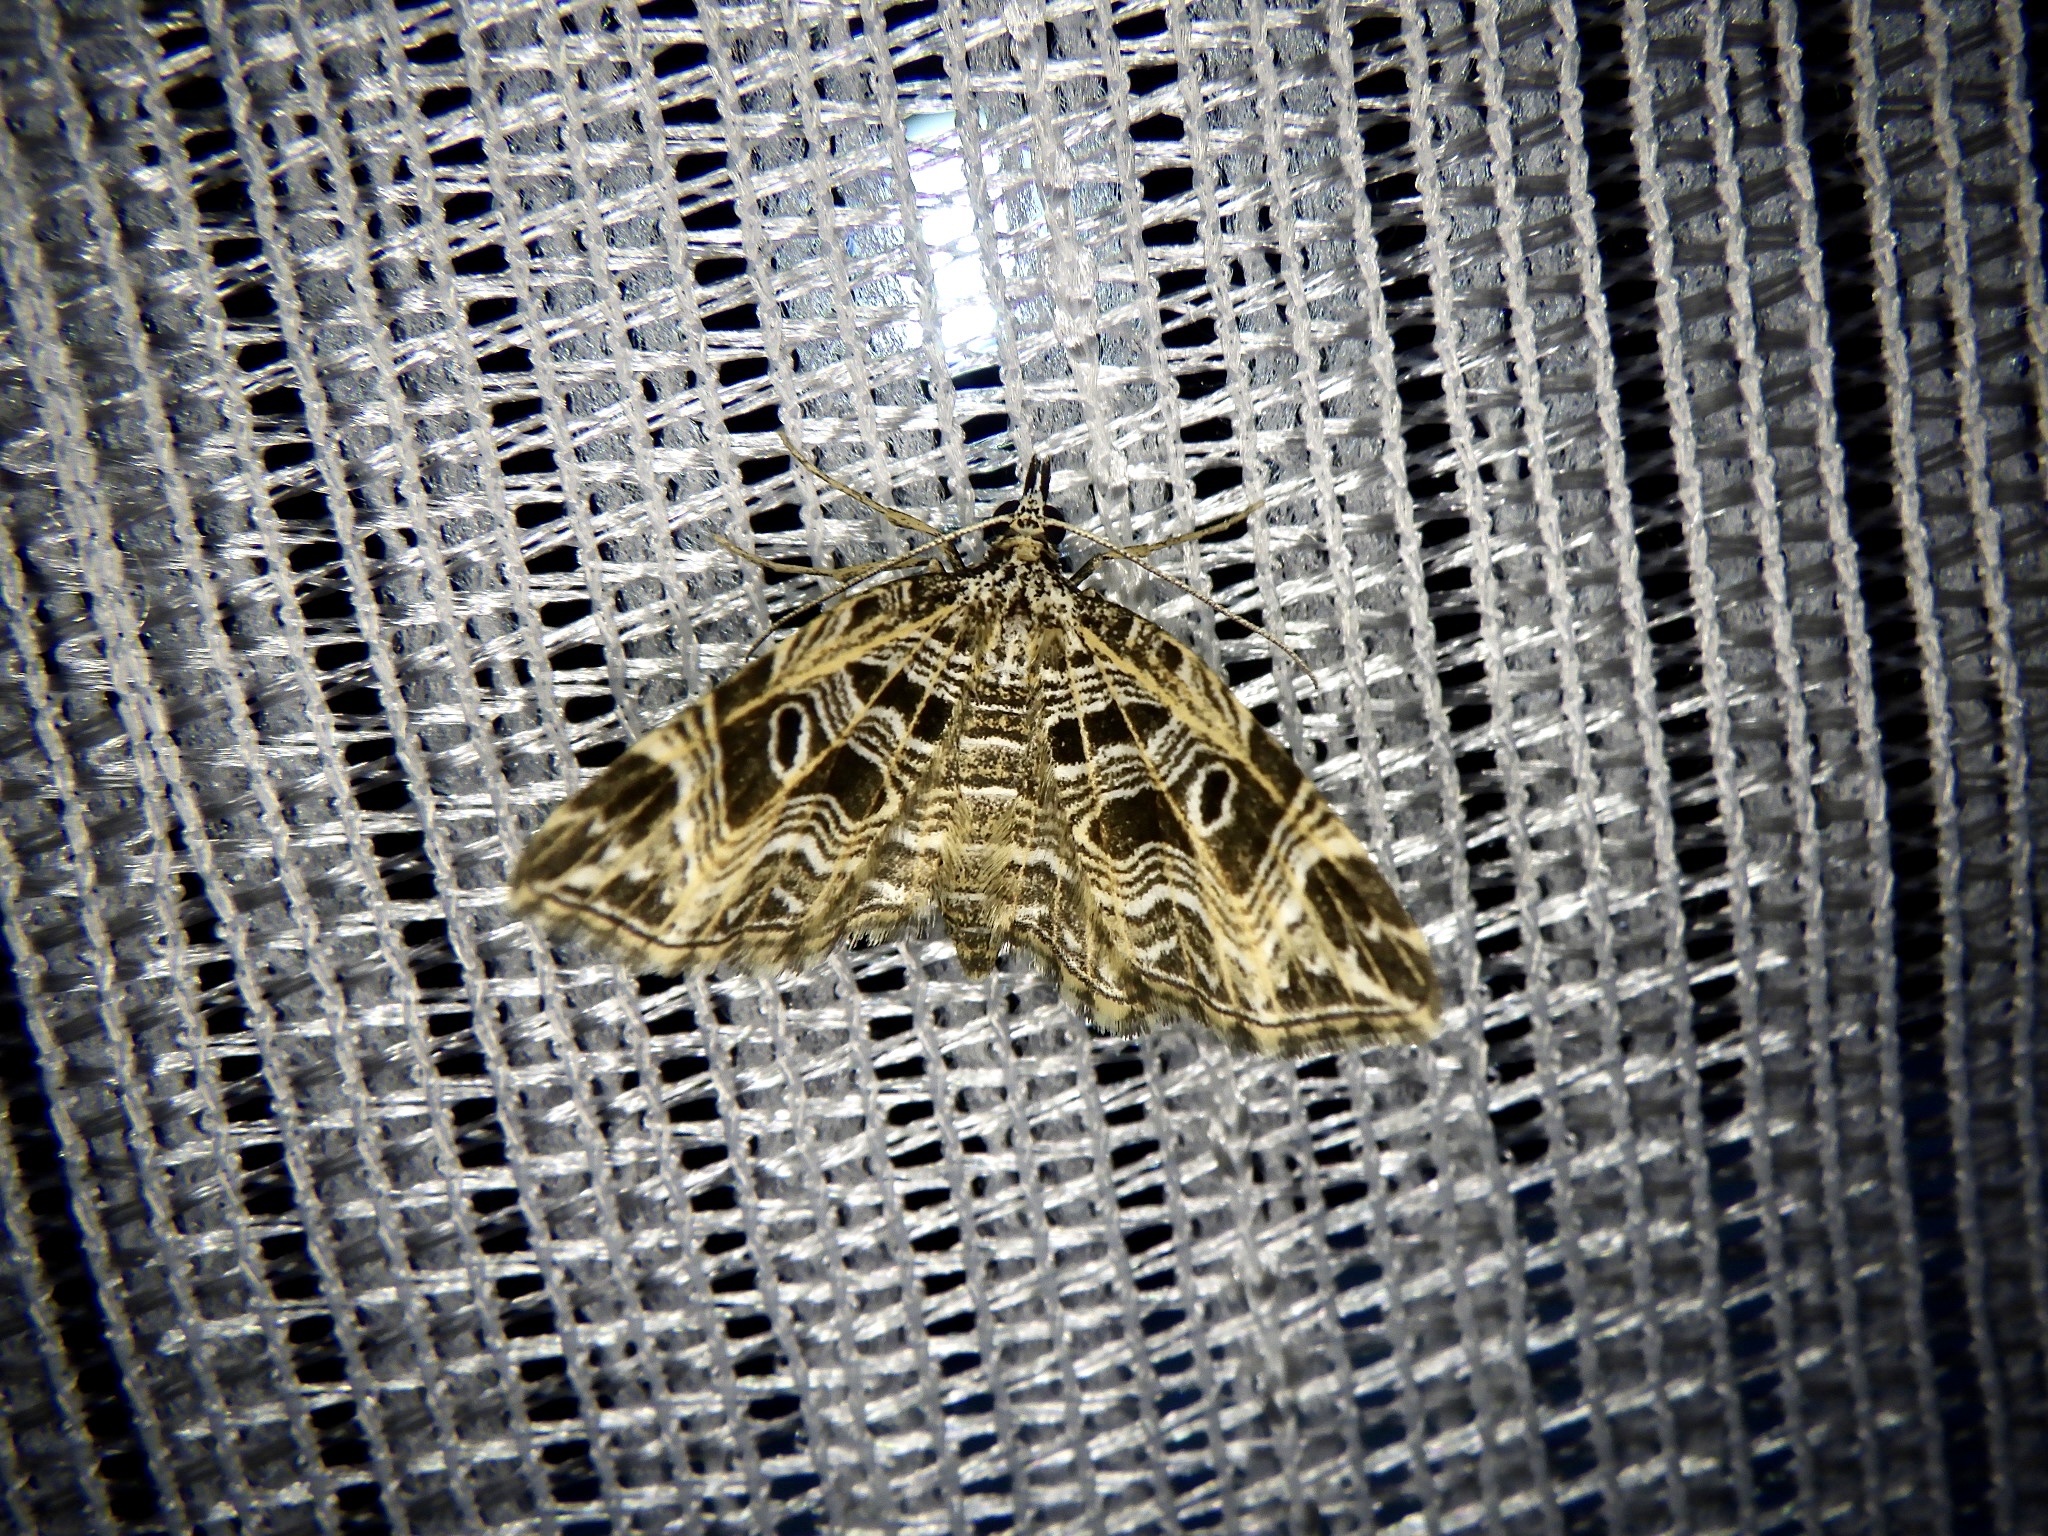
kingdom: Animalia
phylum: Arthropoda
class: Insecta
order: Lepidoptera
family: Geometridae
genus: Lobogonodes
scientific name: Lobogonodes erectaria
